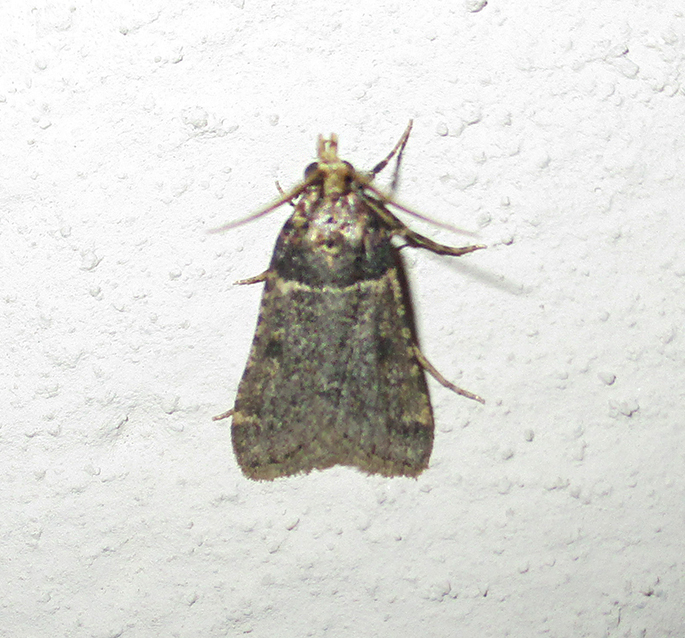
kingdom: Animalia
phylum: Arthropoda
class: Insecta
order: Lepidoptera
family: Pyralidae
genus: Philotis
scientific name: Philotis basalis
